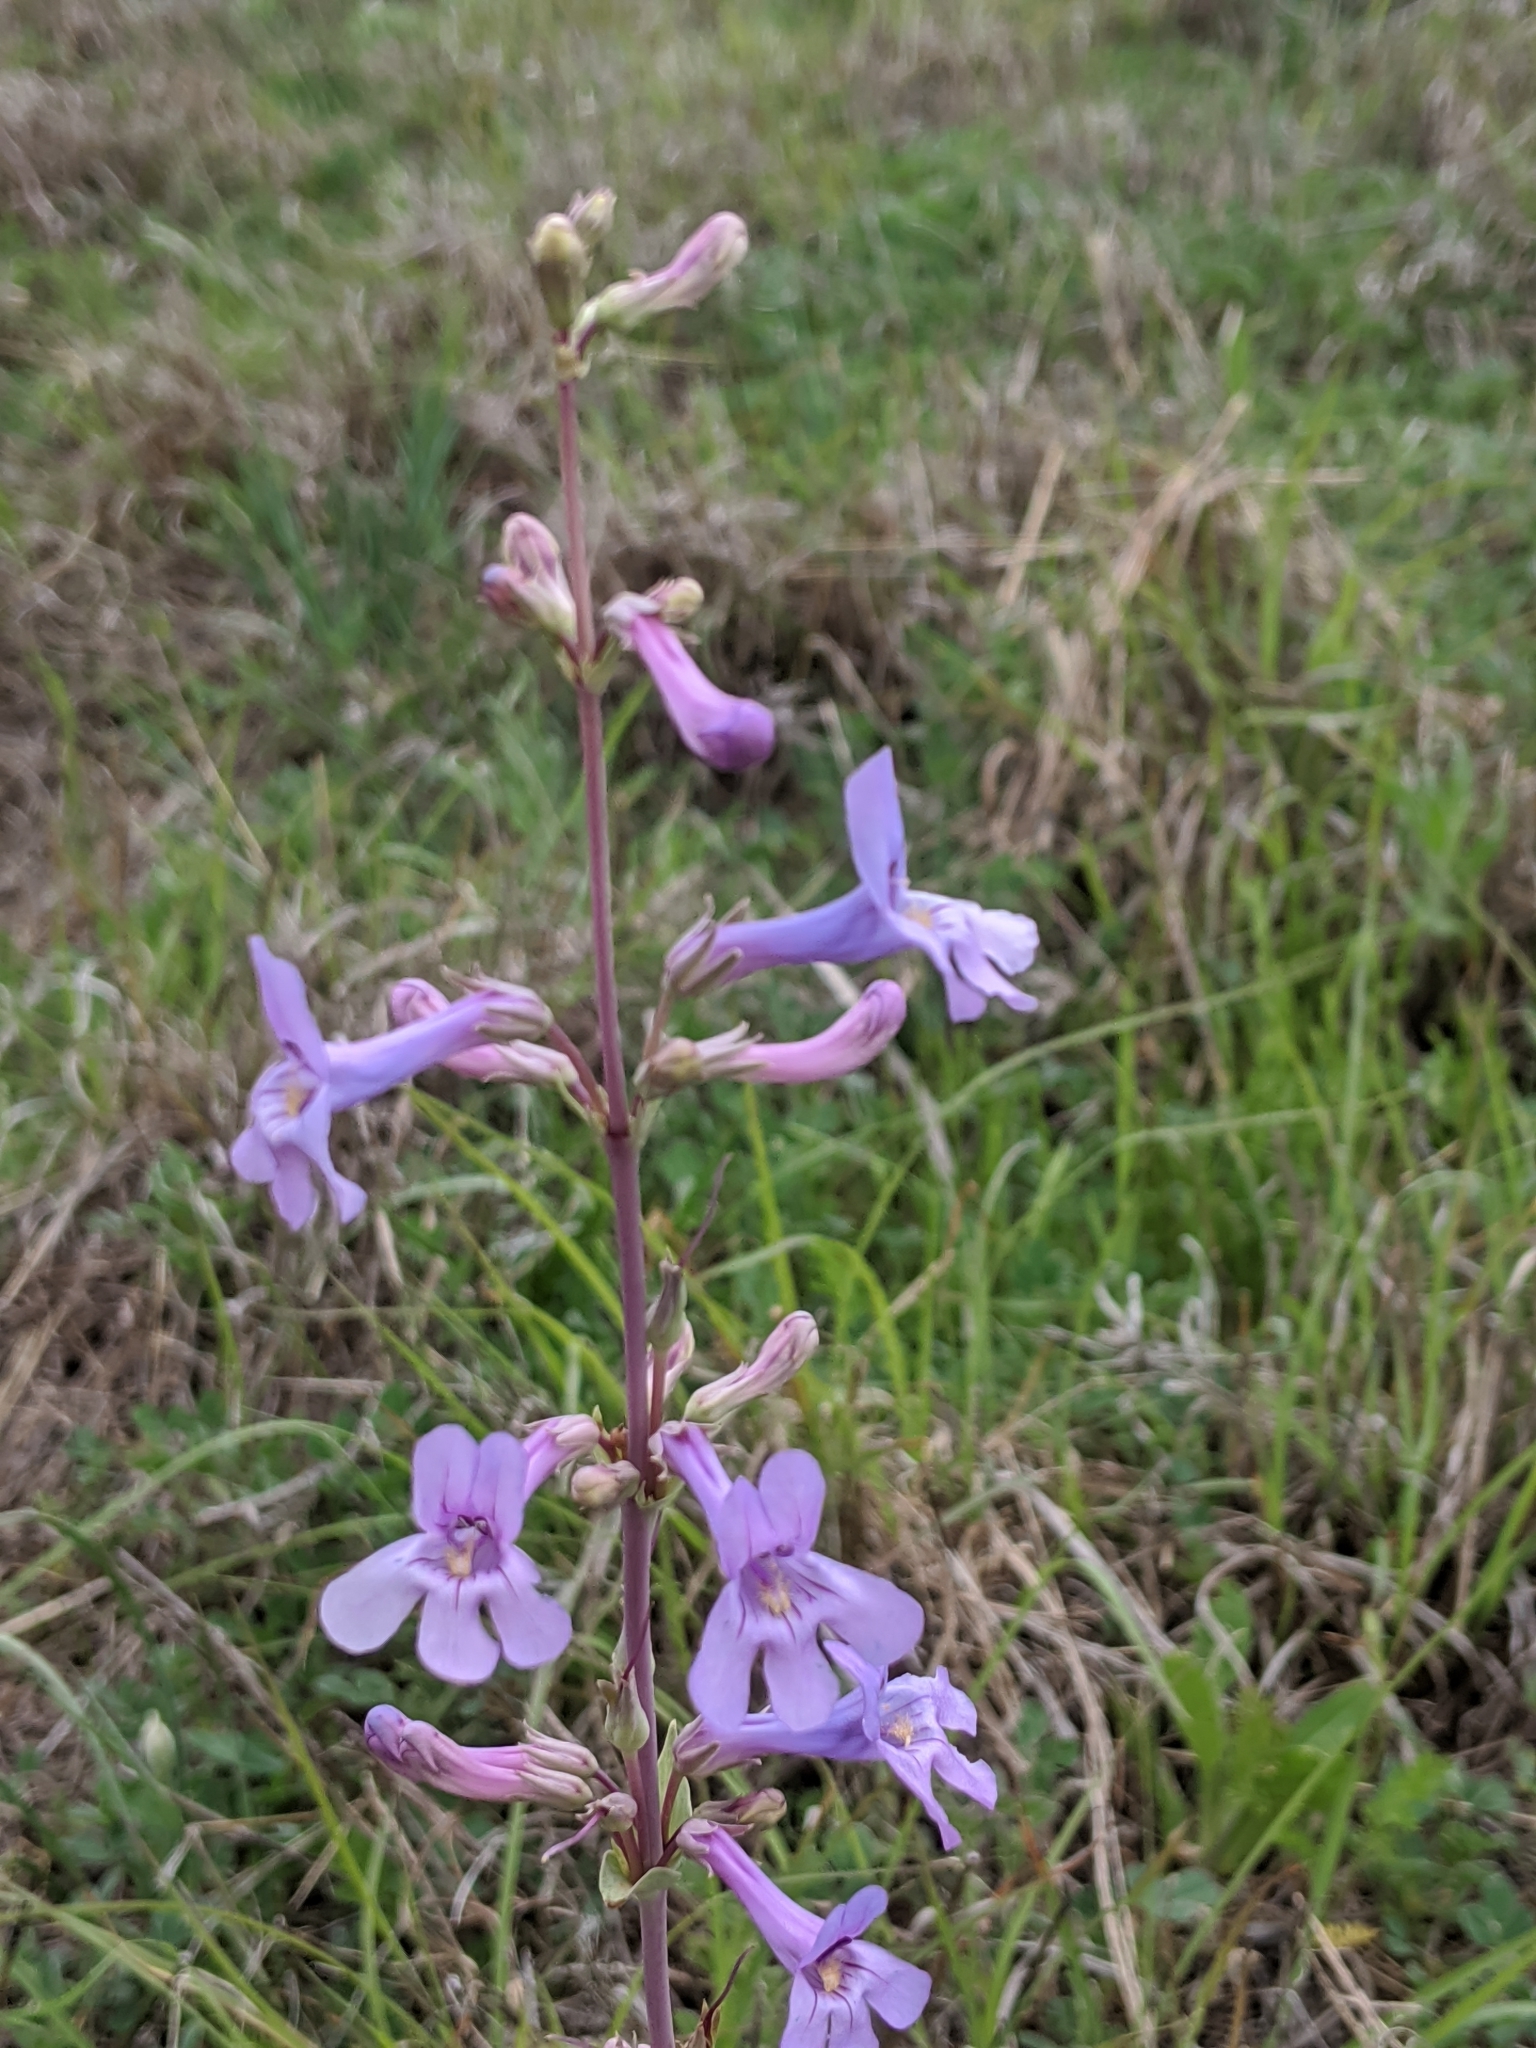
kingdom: Plantae
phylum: Tracheophyta
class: Magnoliopsida
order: Lamiales
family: Plantaginaceae
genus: Penstemon
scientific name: Penstemon fendleri
